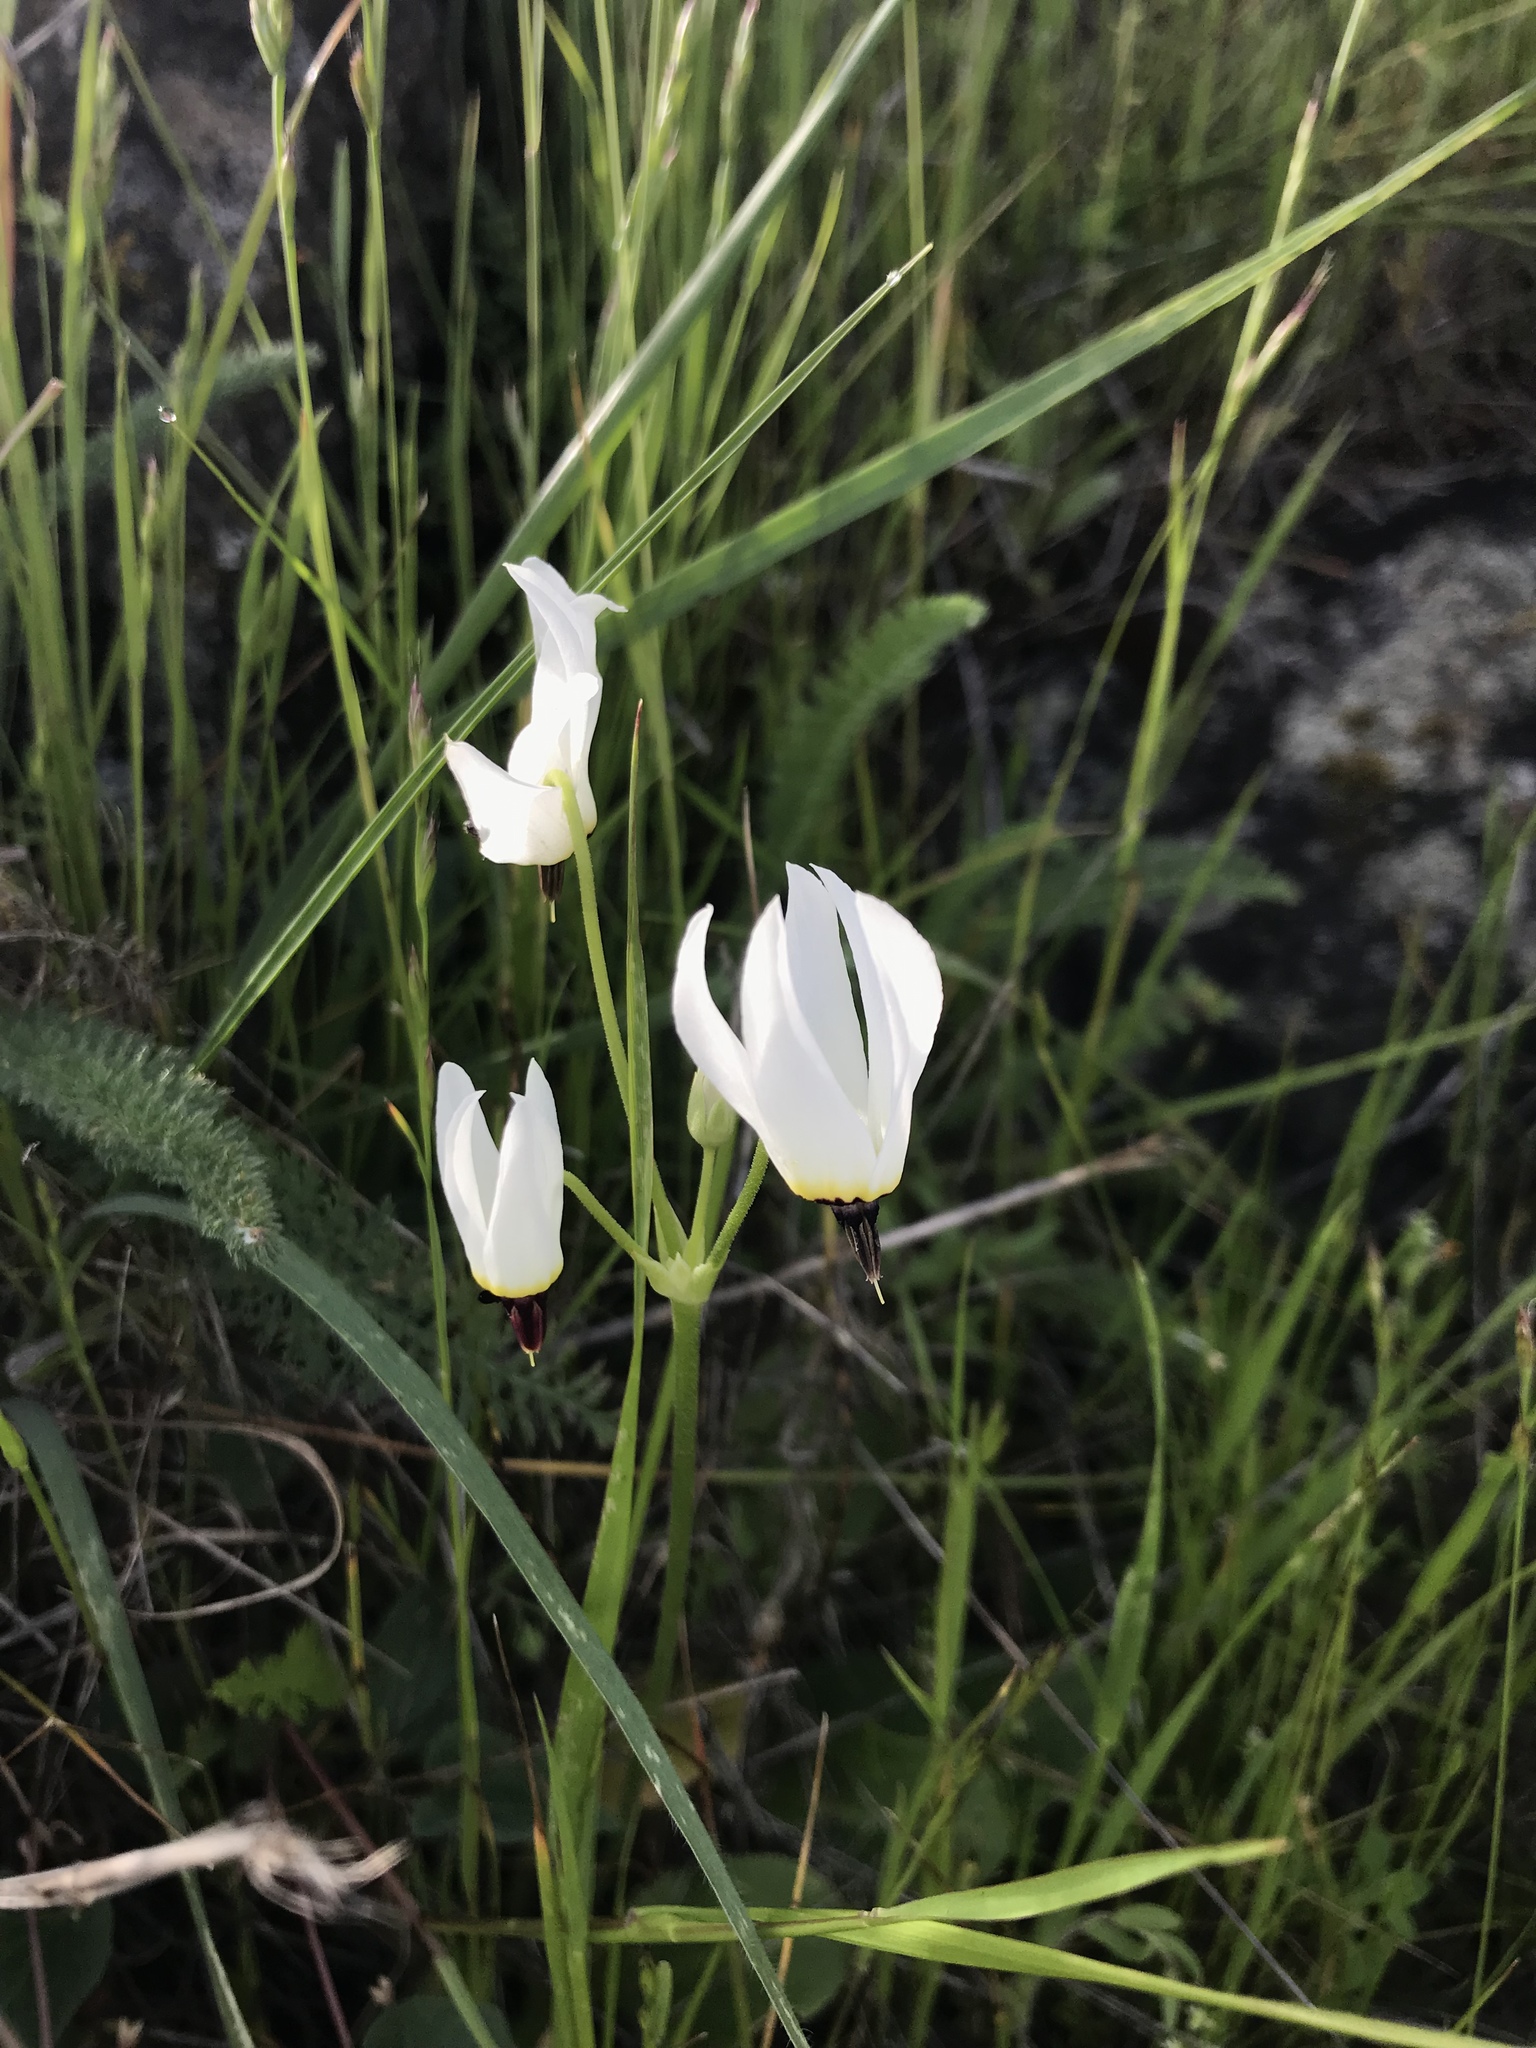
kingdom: Plantae
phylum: Tracheophyta
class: Magnoliopsida
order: Ericales
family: Primulaceae
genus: Dodecatheon
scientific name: Dodecatheon hendersonii
